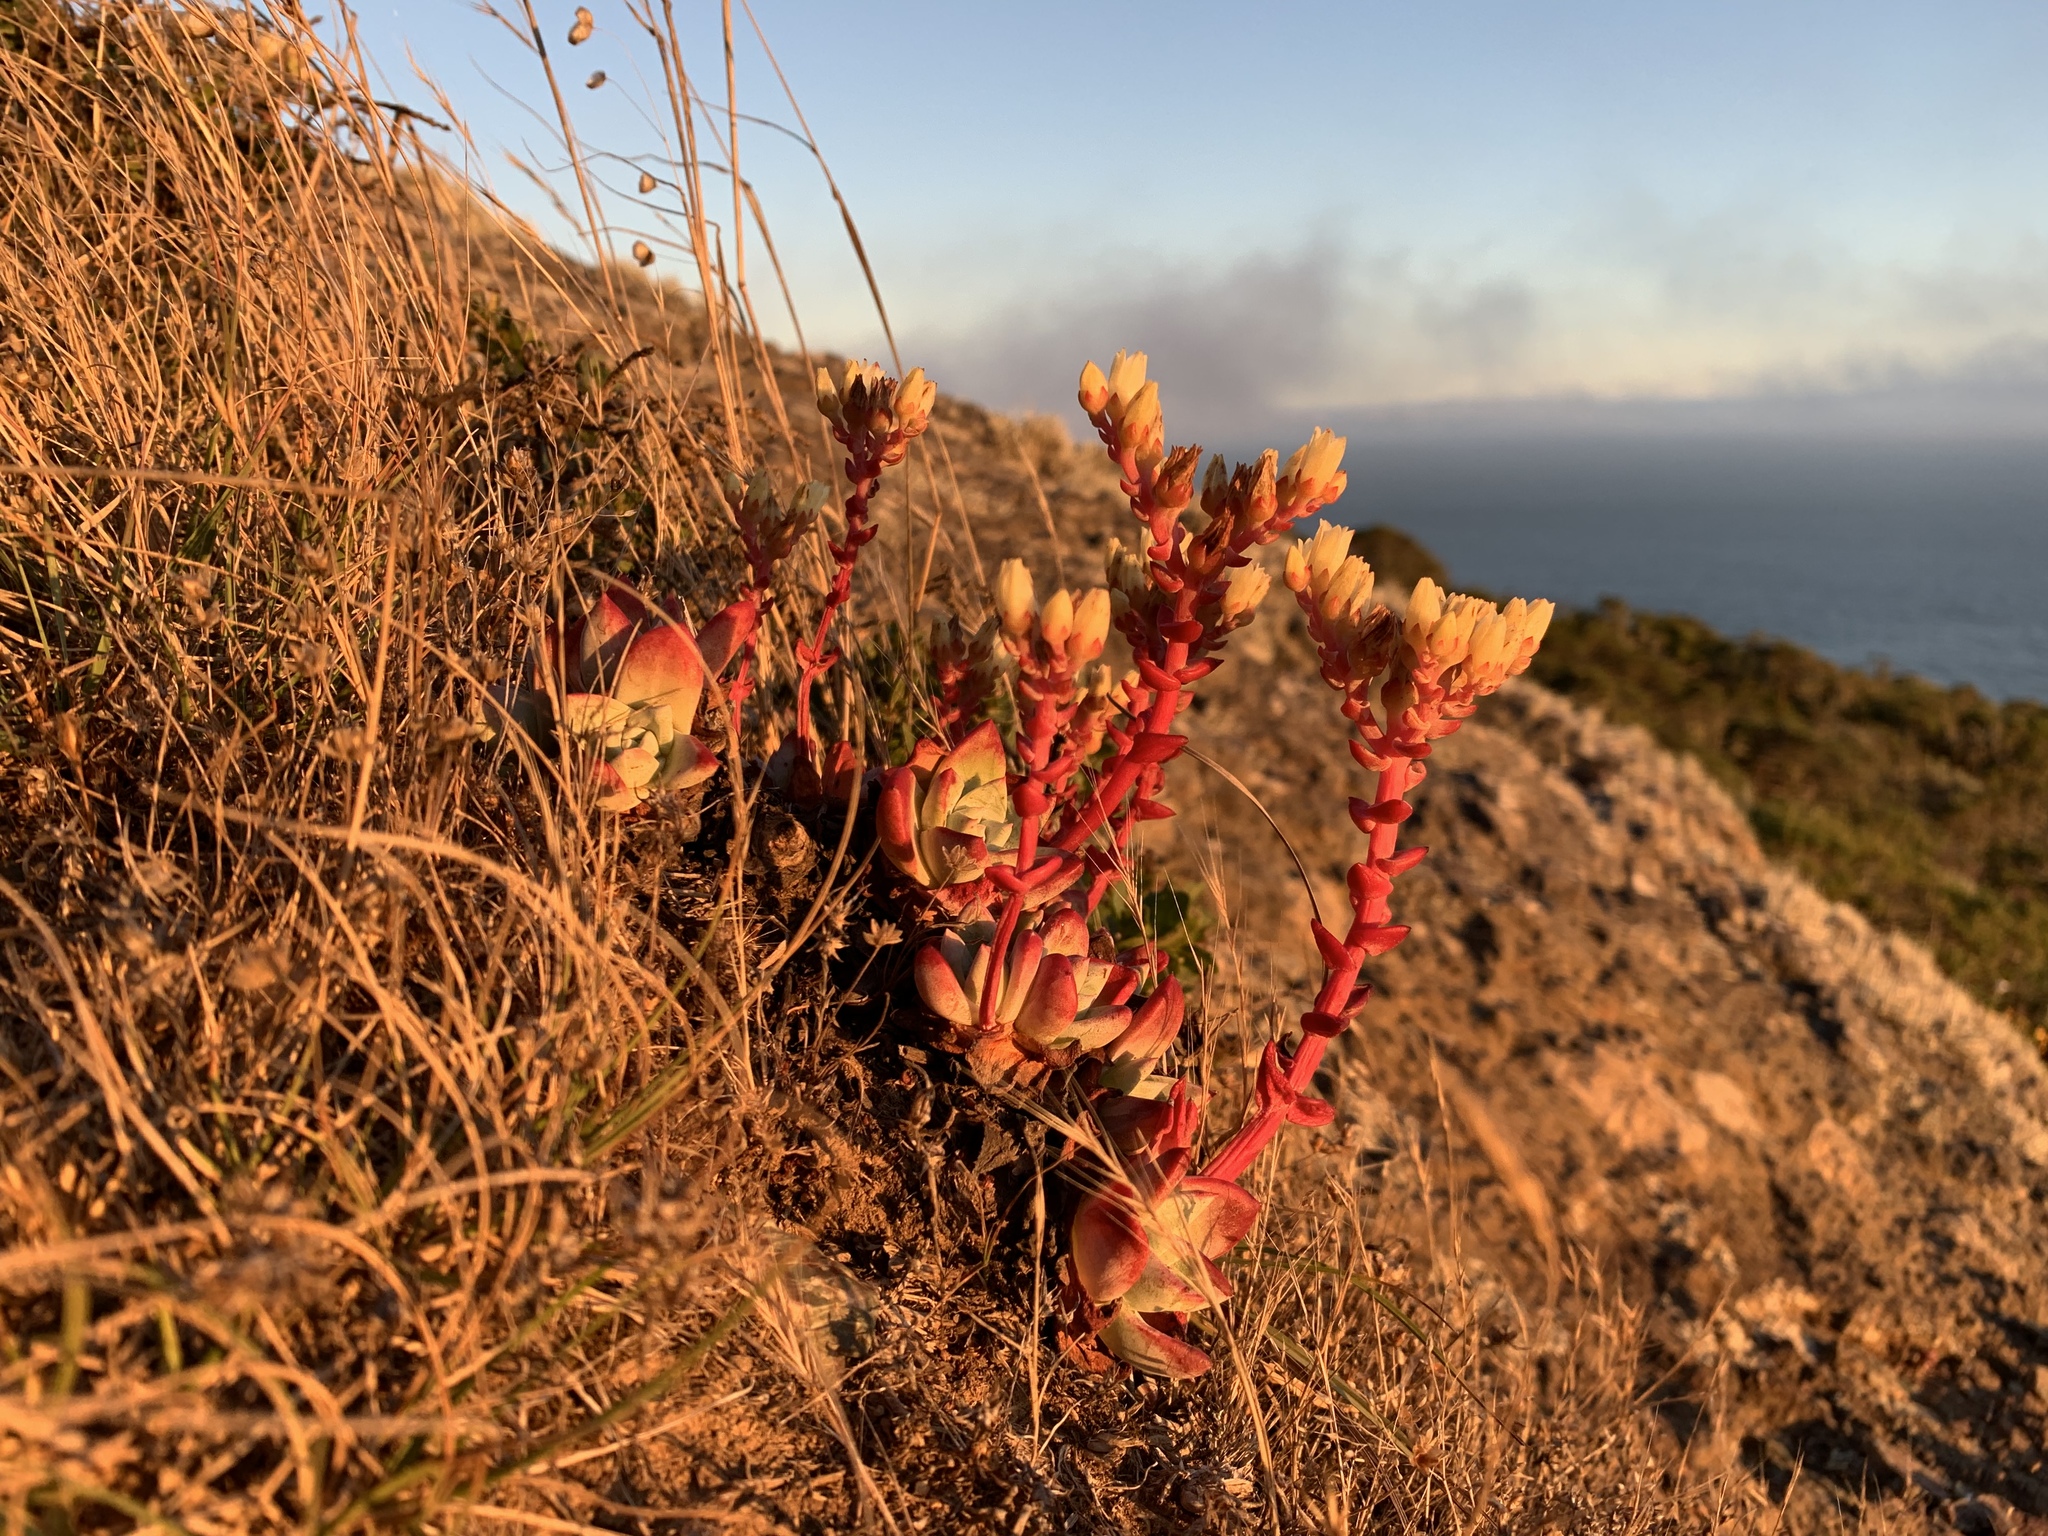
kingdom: Plantae
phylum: Tracheophyta
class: Magnoliopsida
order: Saxifragales
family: Crassulaceae
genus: Dudleya
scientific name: Dudleya farinosa
